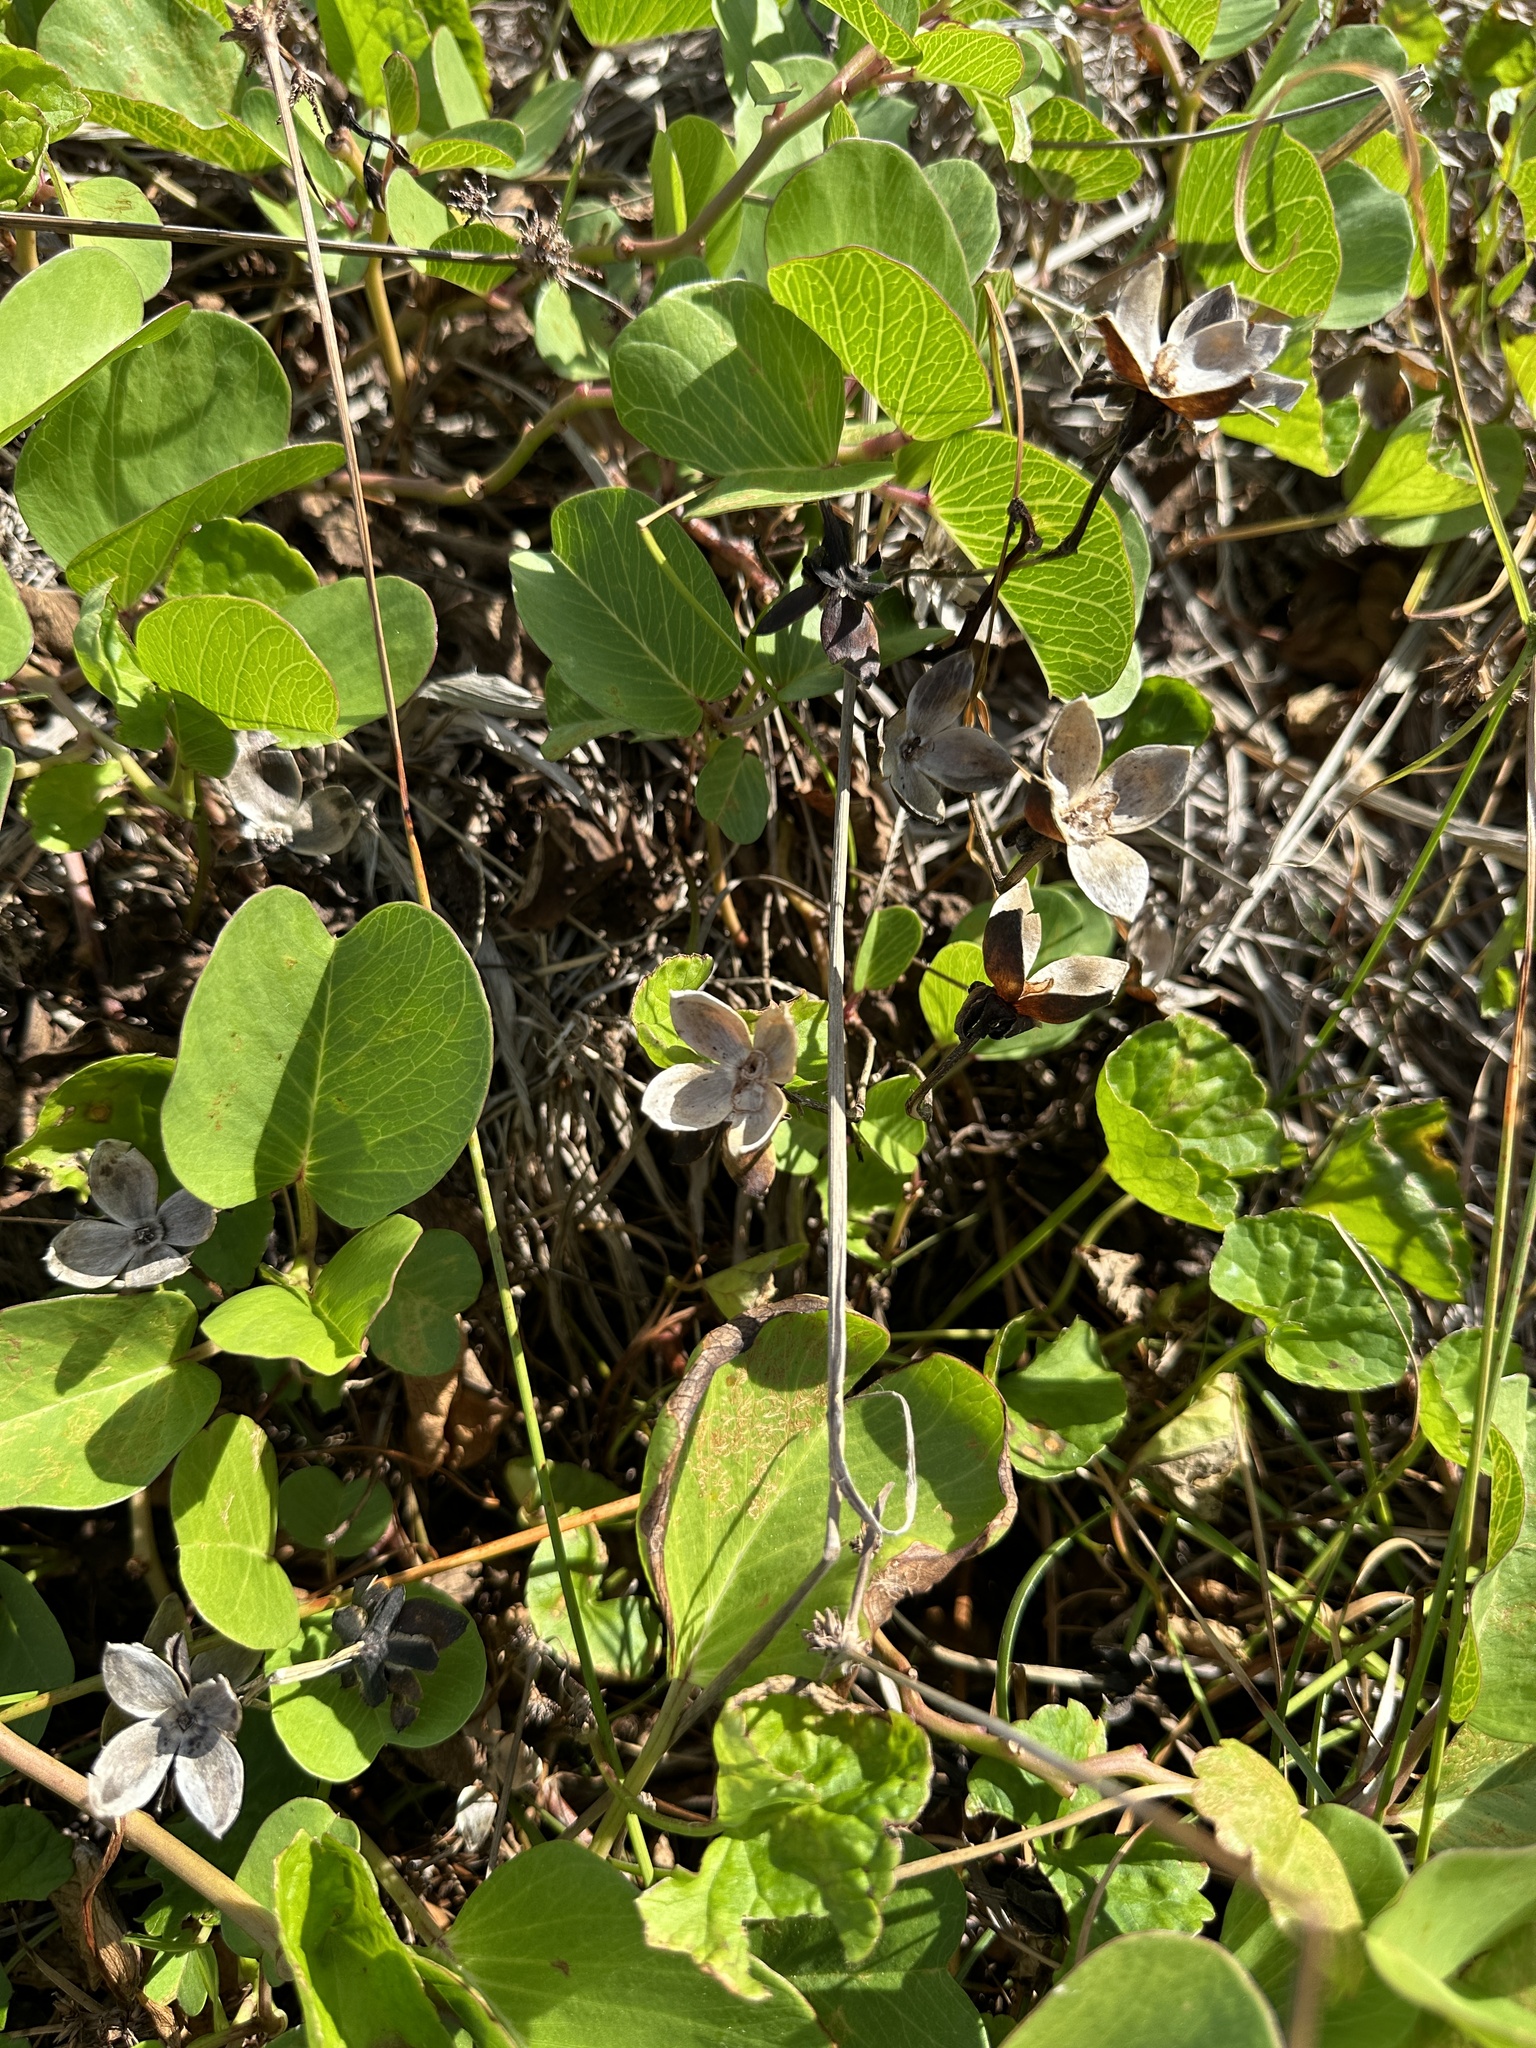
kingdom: Plantae
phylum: Tracheophyta
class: Magnoliopsida
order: Solanales
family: Convolvulaceae
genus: Ipomoea
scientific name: Ipomoea pes-caprae
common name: Beach morning glory
